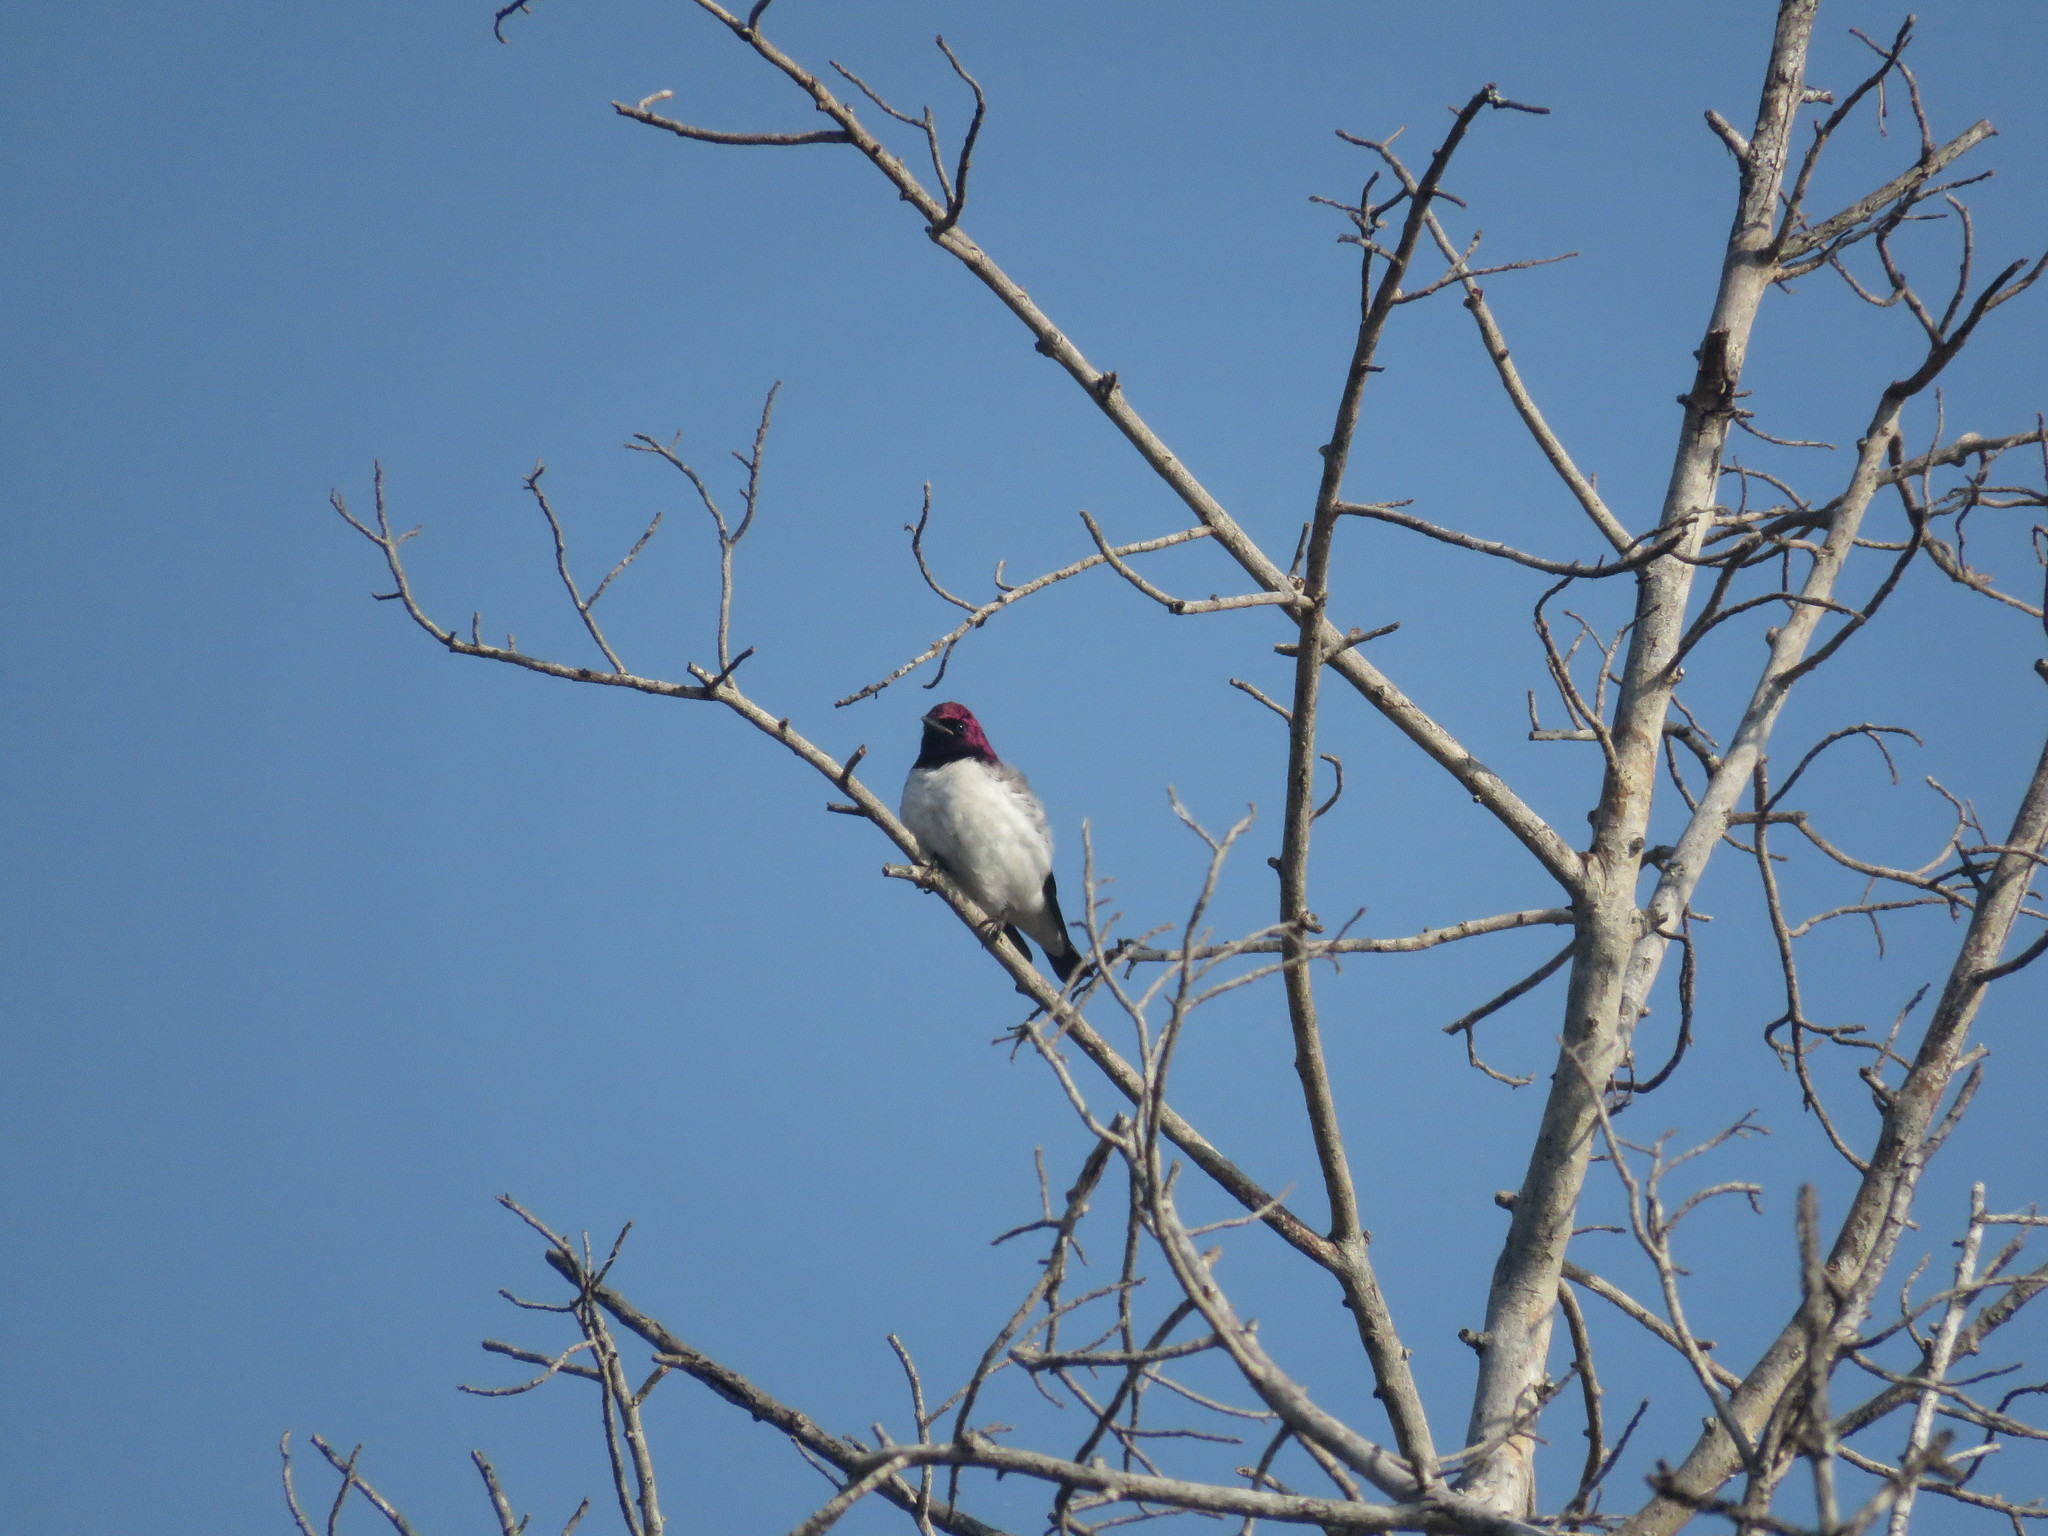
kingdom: Animalia
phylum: Chordata
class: Aves
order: Passeriformes
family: Sturnidae
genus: Cinnyricinclus
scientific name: Cinnyricinclus leucogaster
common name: Violet-backed starling
